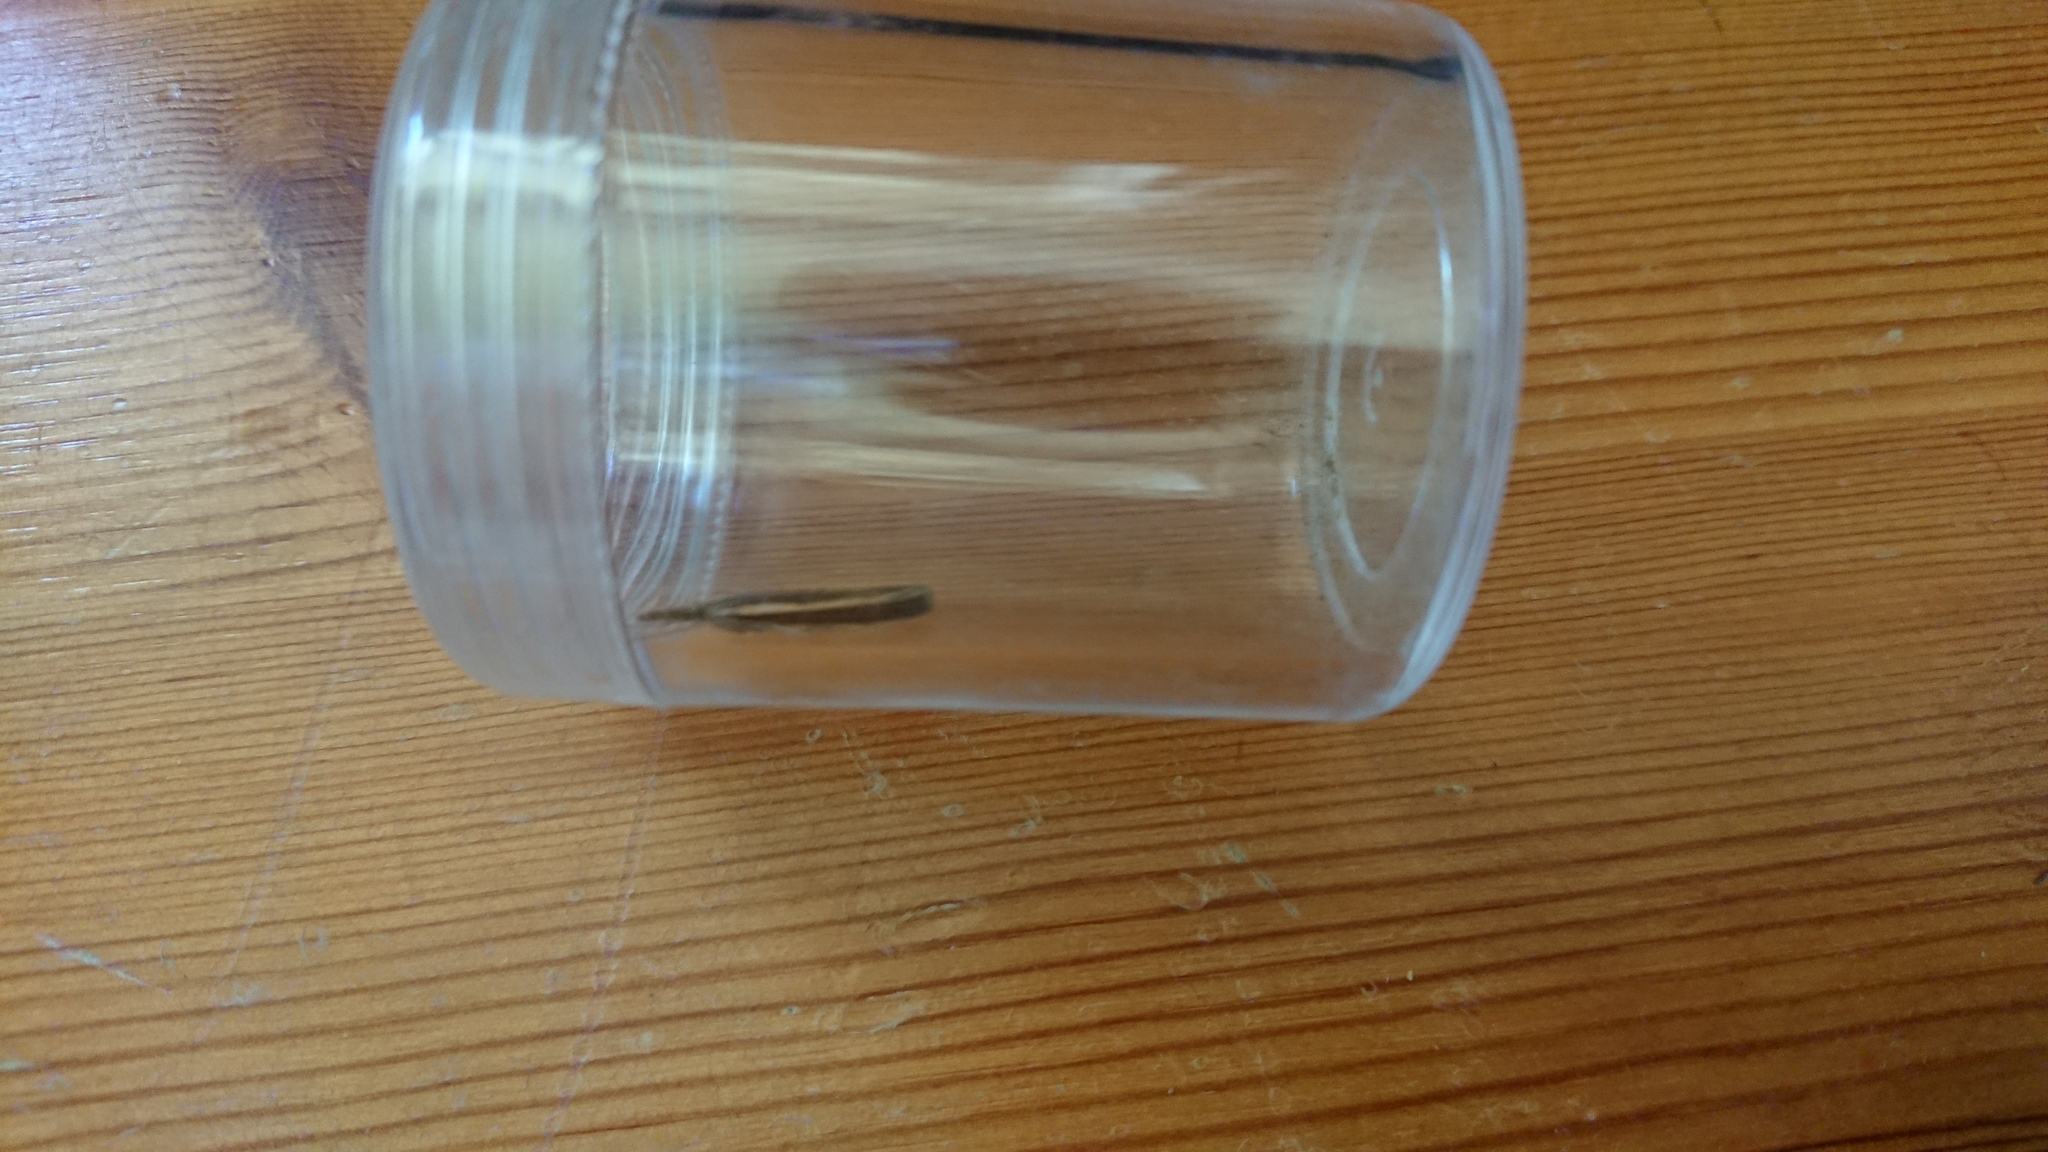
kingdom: Animalia
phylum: Arthropoda
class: Insecta
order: Lepidoptera
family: Crambidae
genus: Agriphila
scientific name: Agriphila tristellus
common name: Common grass-veneer
